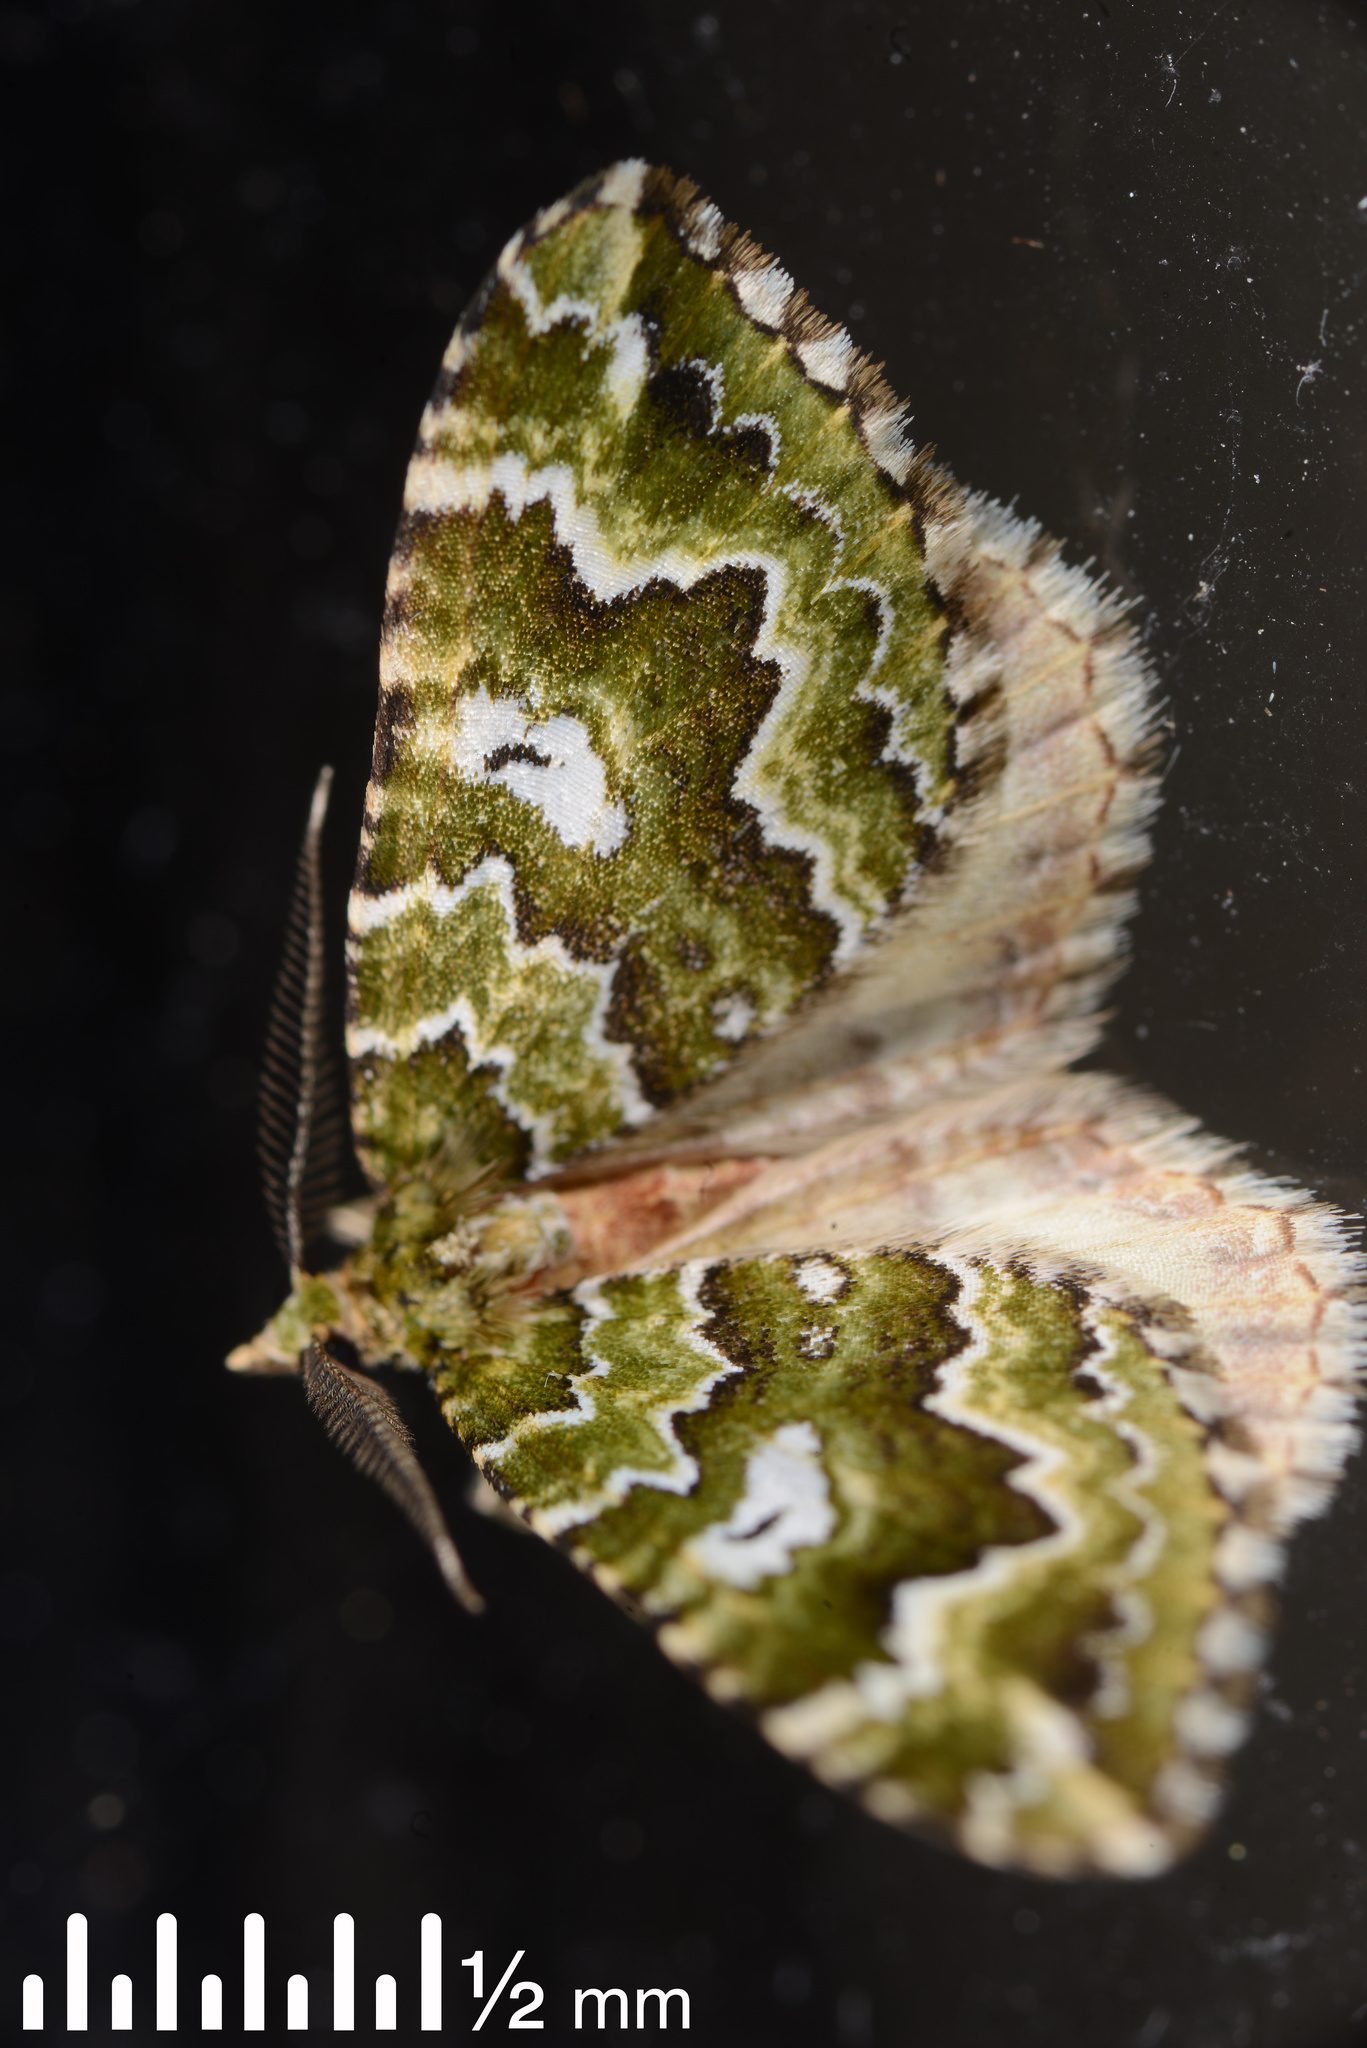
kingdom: Animalia
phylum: Arthropoda
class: Insecta
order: Lepidoptera
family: Geometridae
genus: Asaphodes
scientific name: Asaphodes beata
